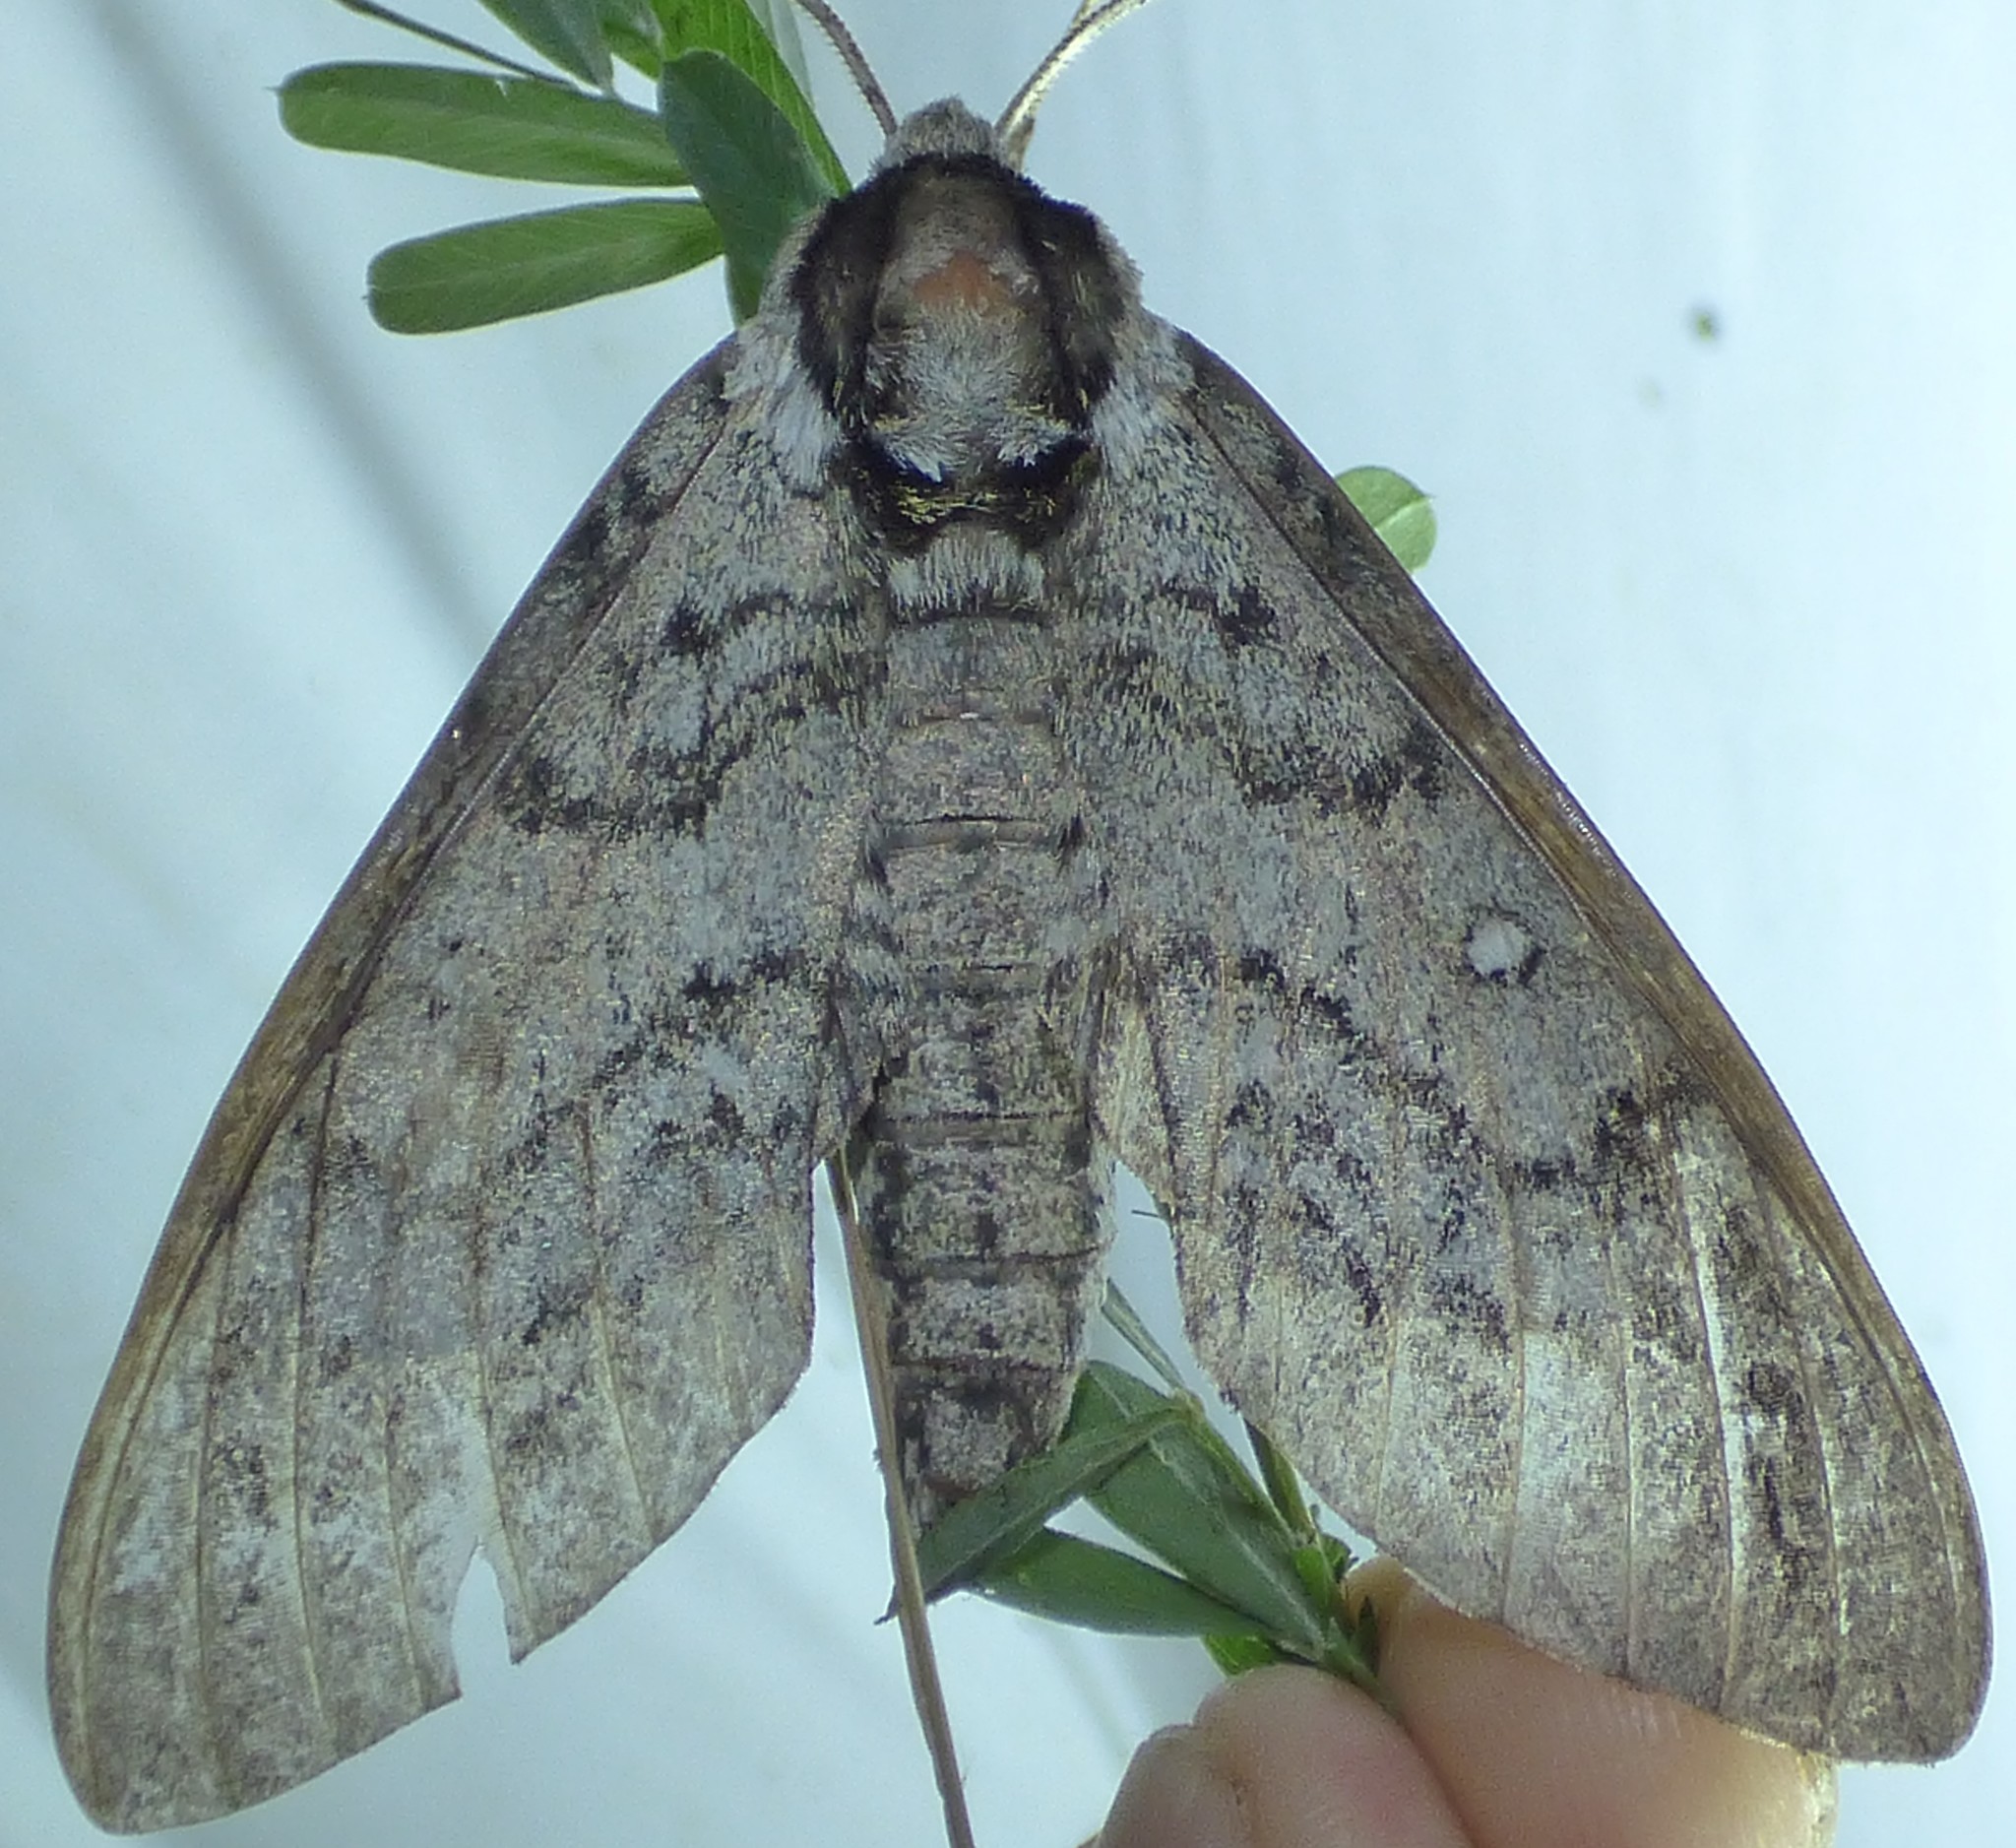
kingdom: Animalia
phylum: Arthropoda
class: Insecta
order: Lepidoptera
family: Sphingidae
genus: Ceratomia
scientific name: Ceratomia undulosa
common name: Waved sphinx
